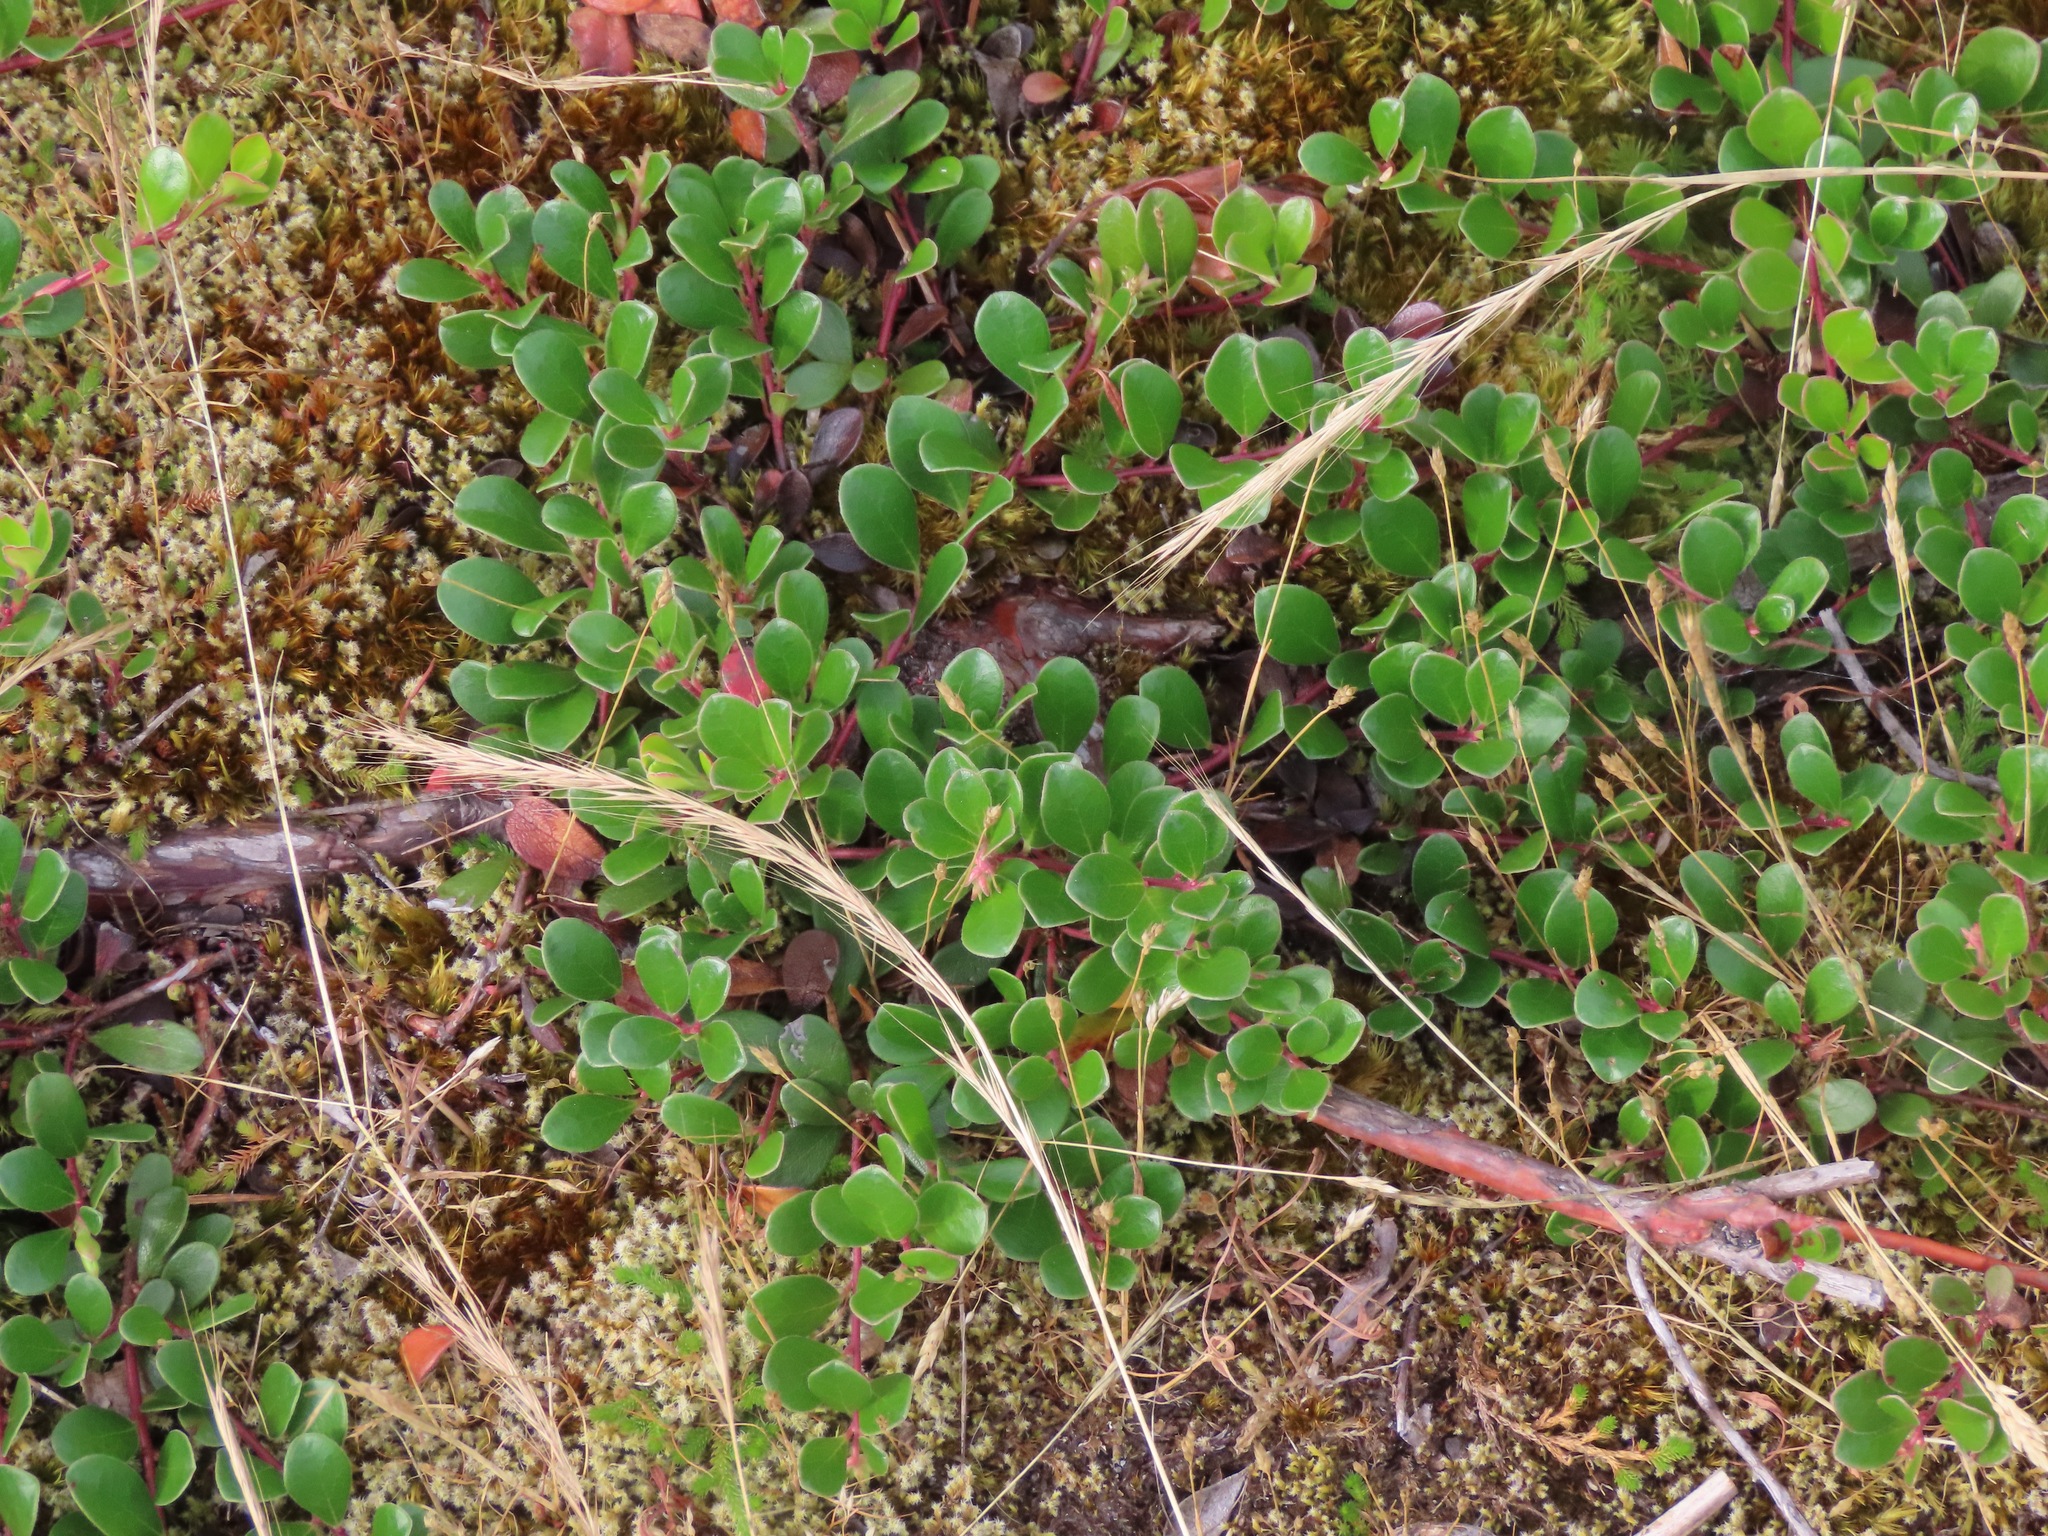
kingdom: Plantae
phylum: Tracheophyta
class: Magnoliopsida
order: Ericales
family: Ericaceae
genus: Arctostaphylos
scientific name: Arctostaphylos uva-ursi
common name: Bearberry
